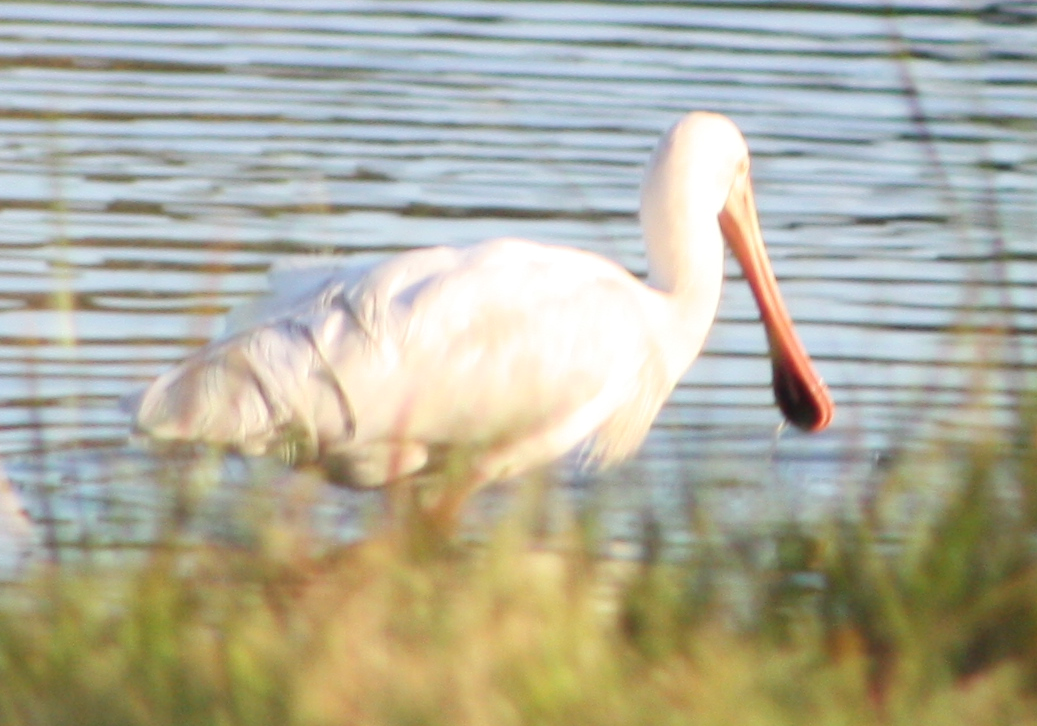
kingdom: Animalia
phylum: Chordata
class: Aves
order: Pelecaniformes
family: Threskiornithidae
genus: Platalea
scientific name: Platalea flavipes
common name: Yellow-billed spoonbill
